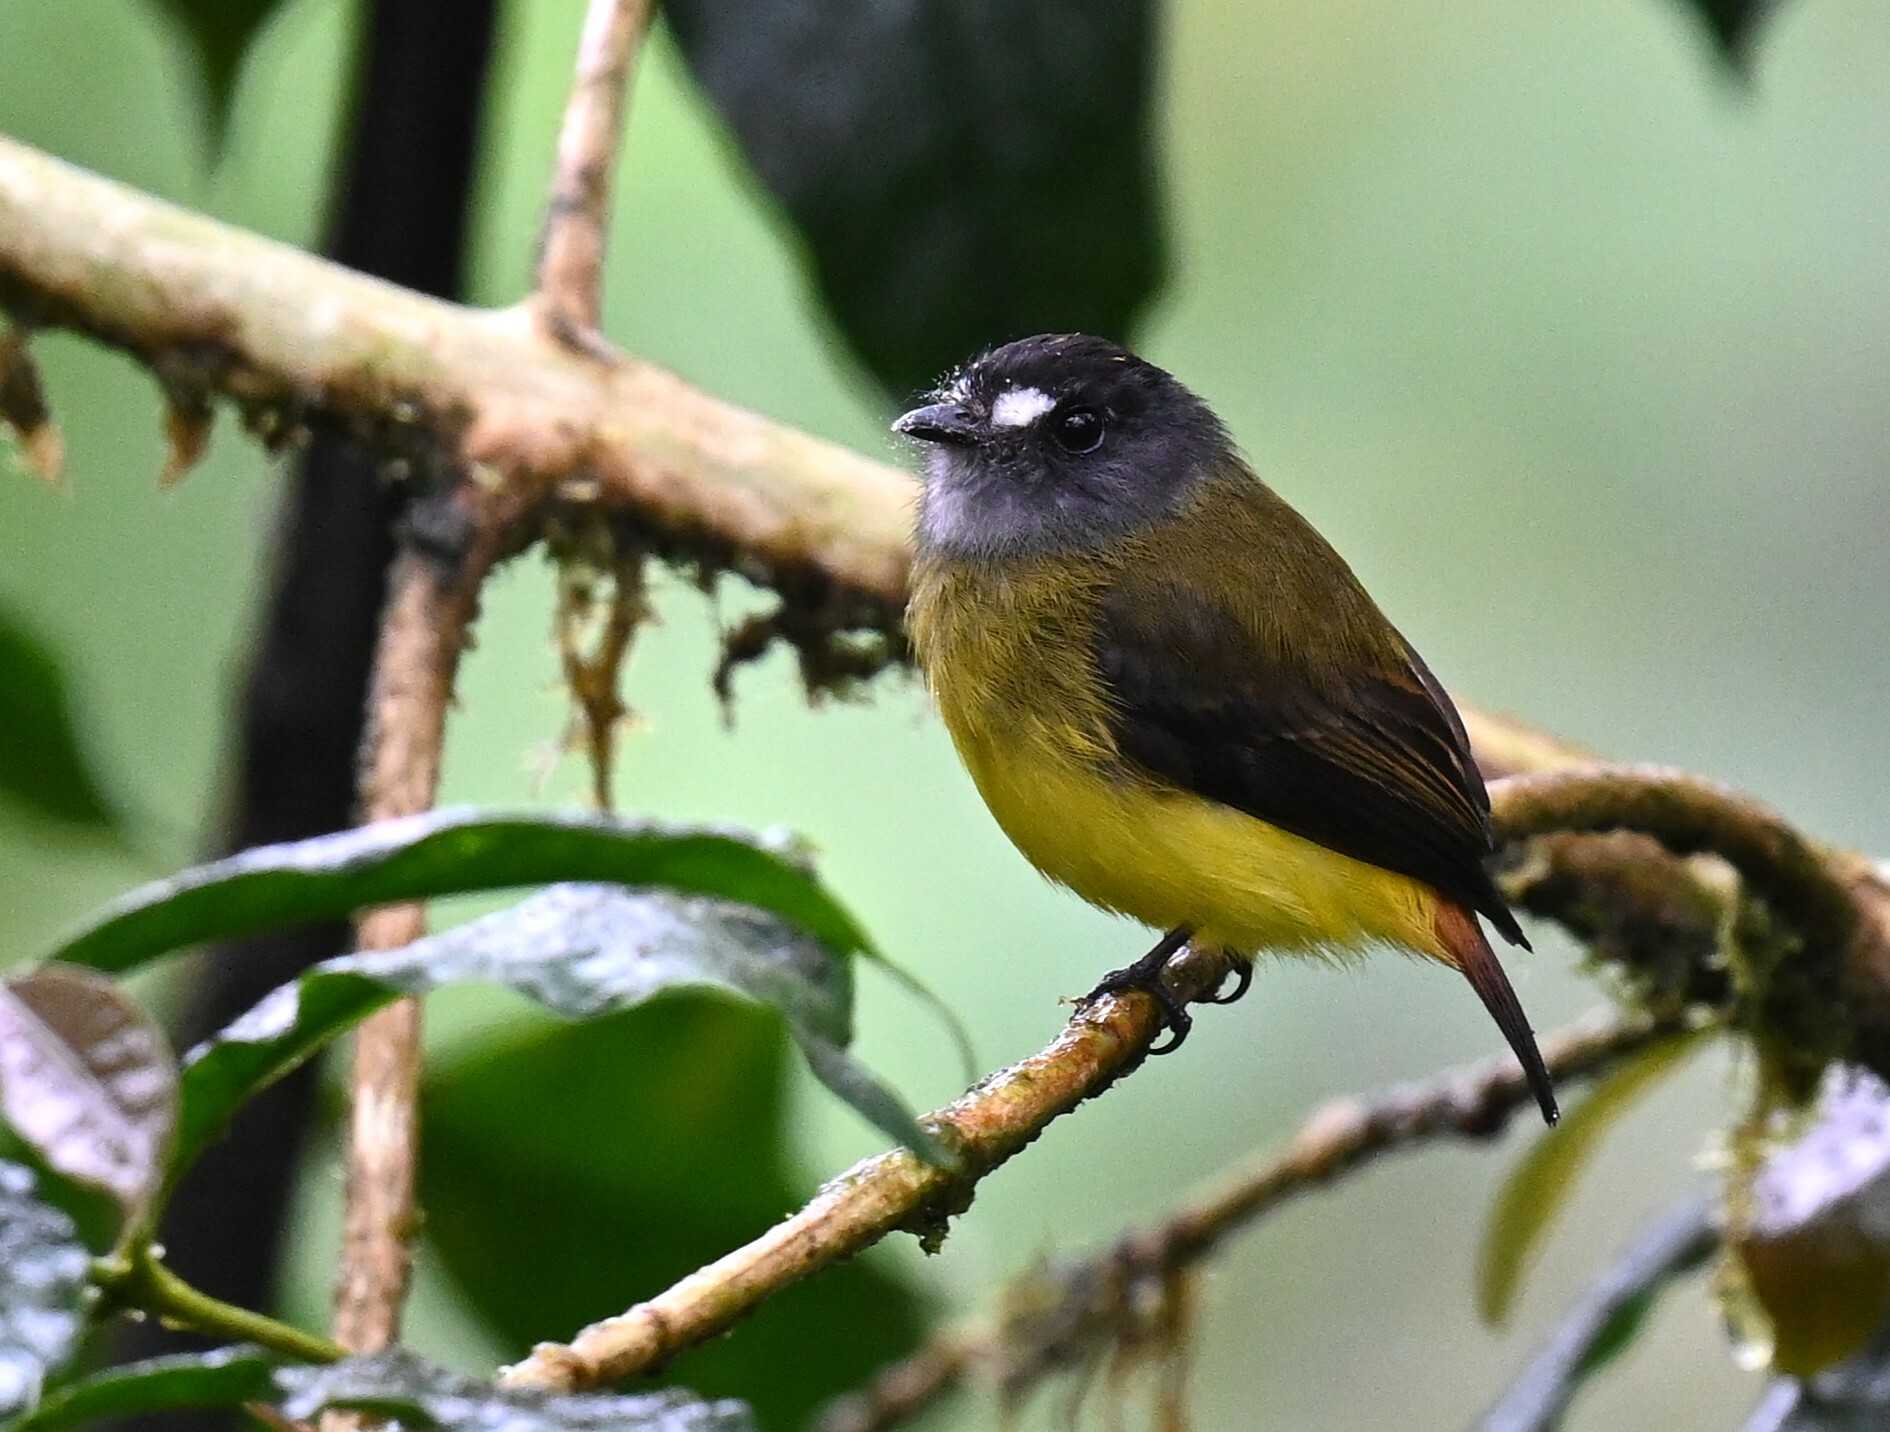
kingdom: Animalia
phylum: Chordata
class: Aves
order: Passeriformes
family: Tyrannidae
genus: Myiotriccus
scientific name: Myiotriccus ornatus
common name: Ornate flycatcher
